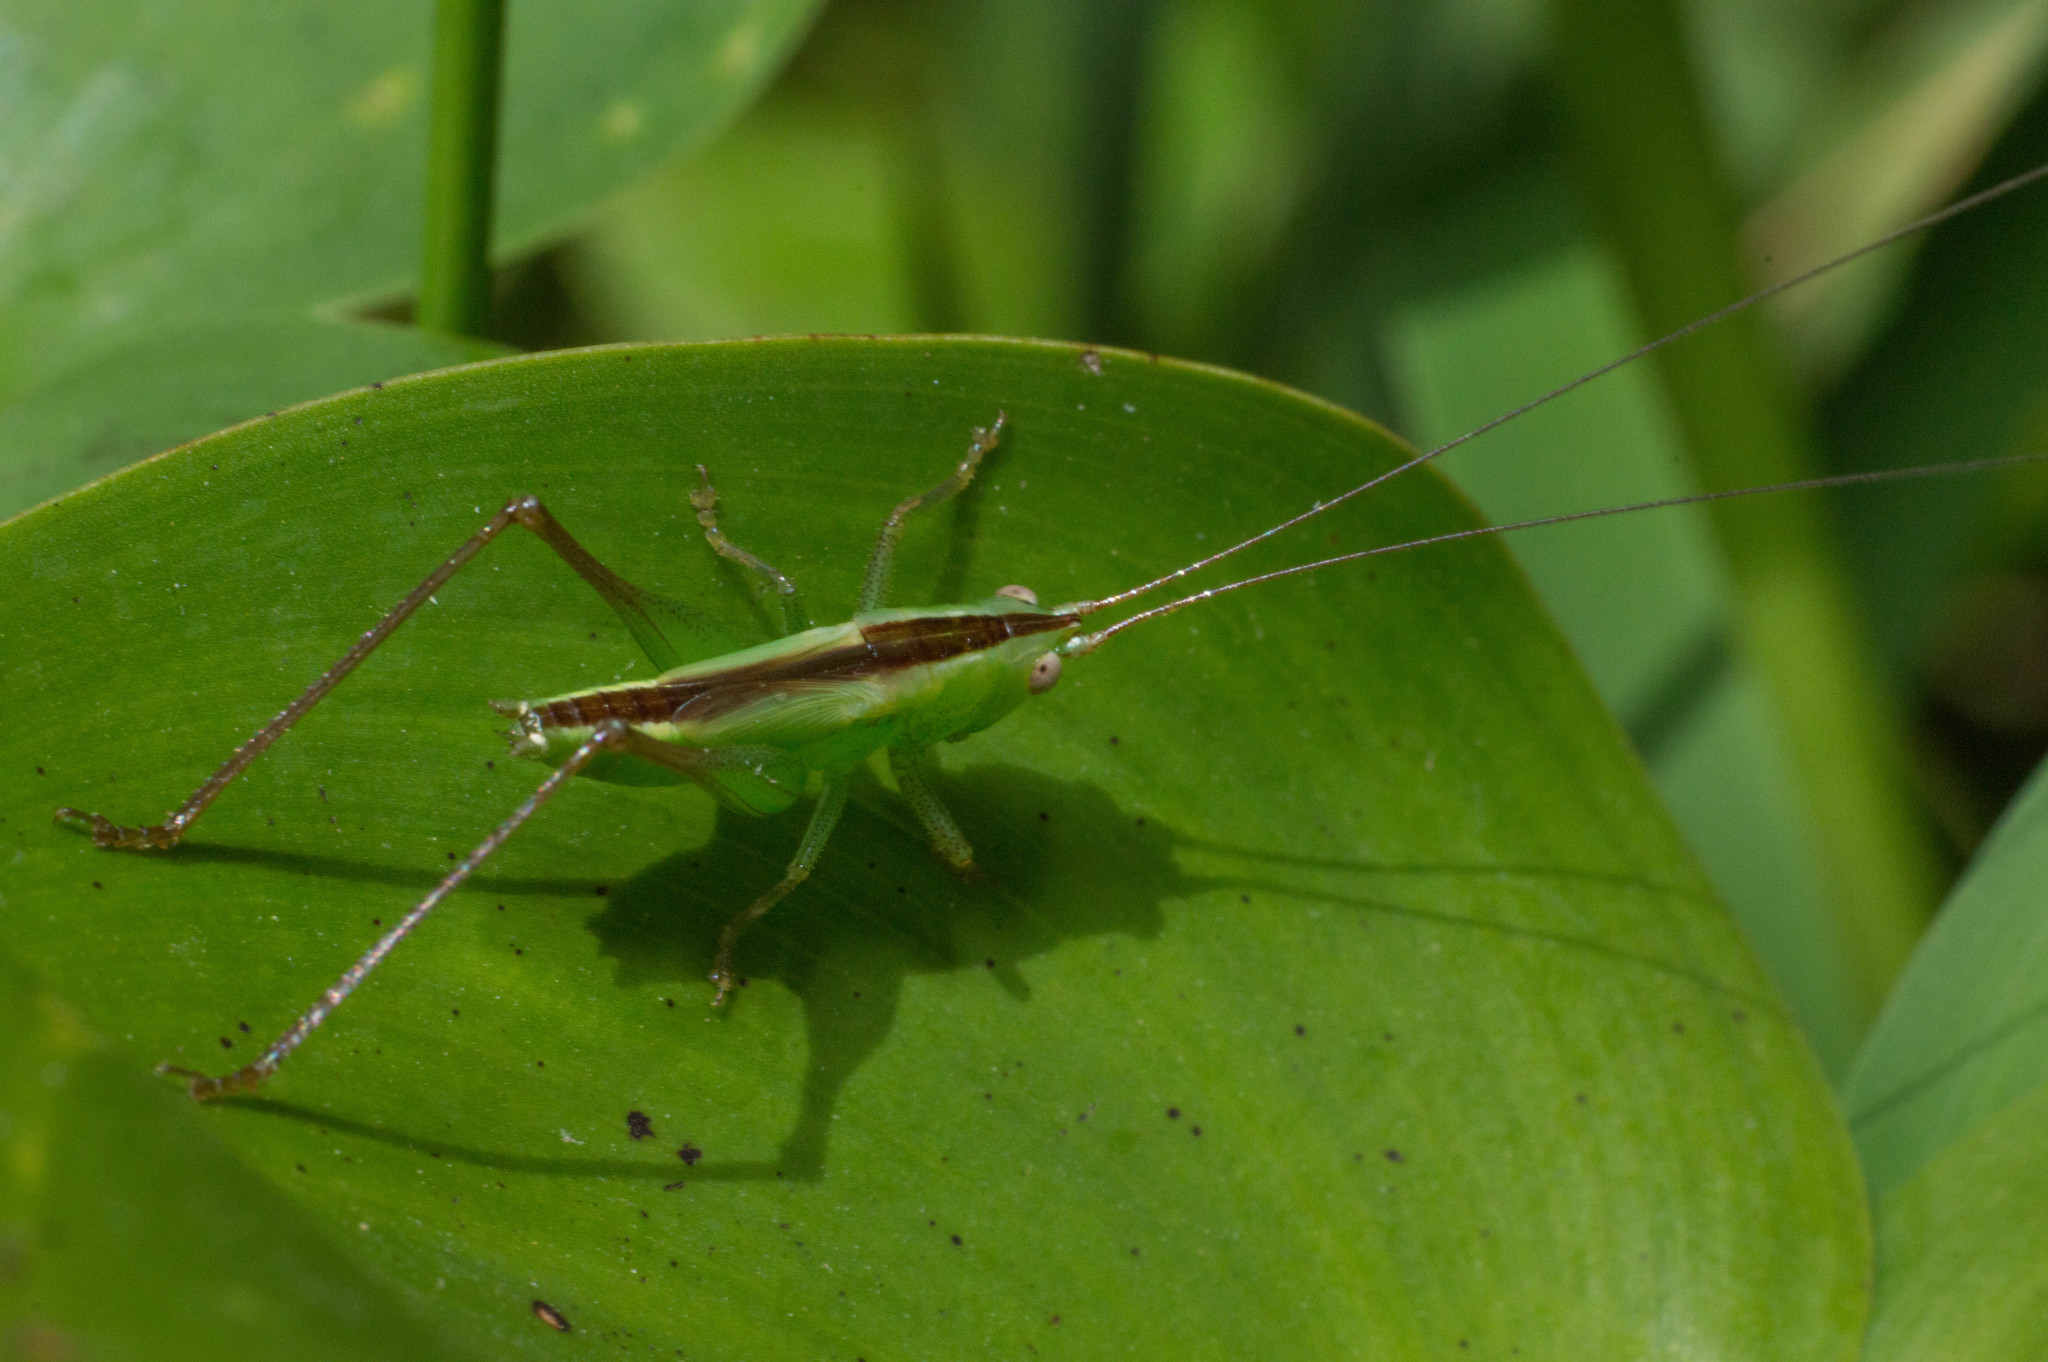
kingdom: Animalia
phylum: Arthropoda
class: Insecta
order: Orthoptera
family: Tettigoniidae
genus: Conocephalus
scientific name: Conocephalus longipes
